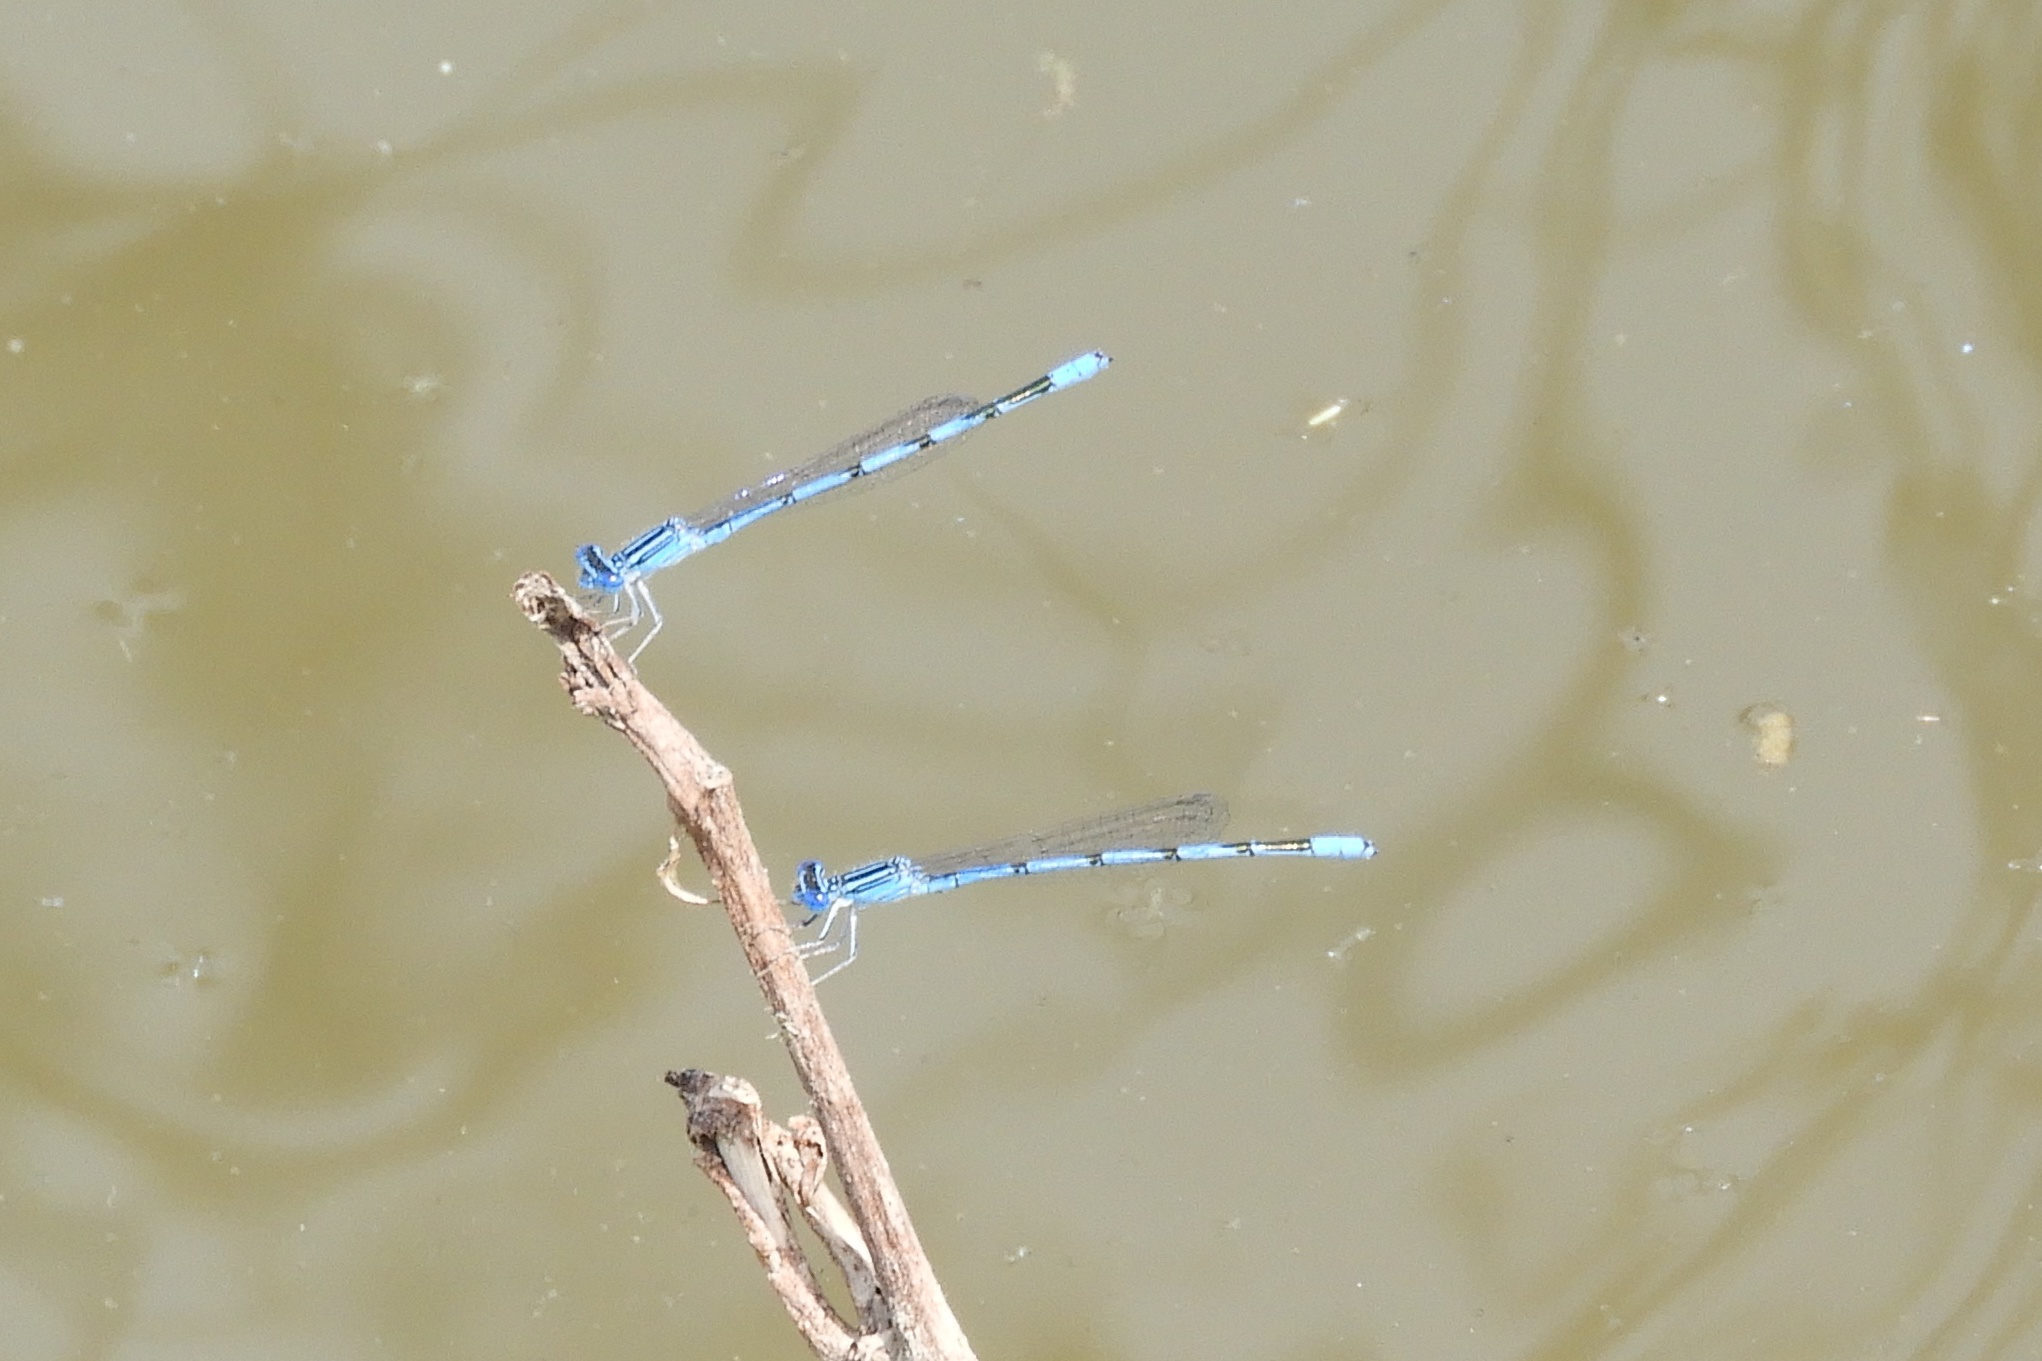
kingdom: Animalia
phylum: Arthropoda
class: Insecta
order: Odonata
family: Coenagrionidae
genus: Enallagma
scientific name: Enallagma basidens
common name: Double-striped bluet
